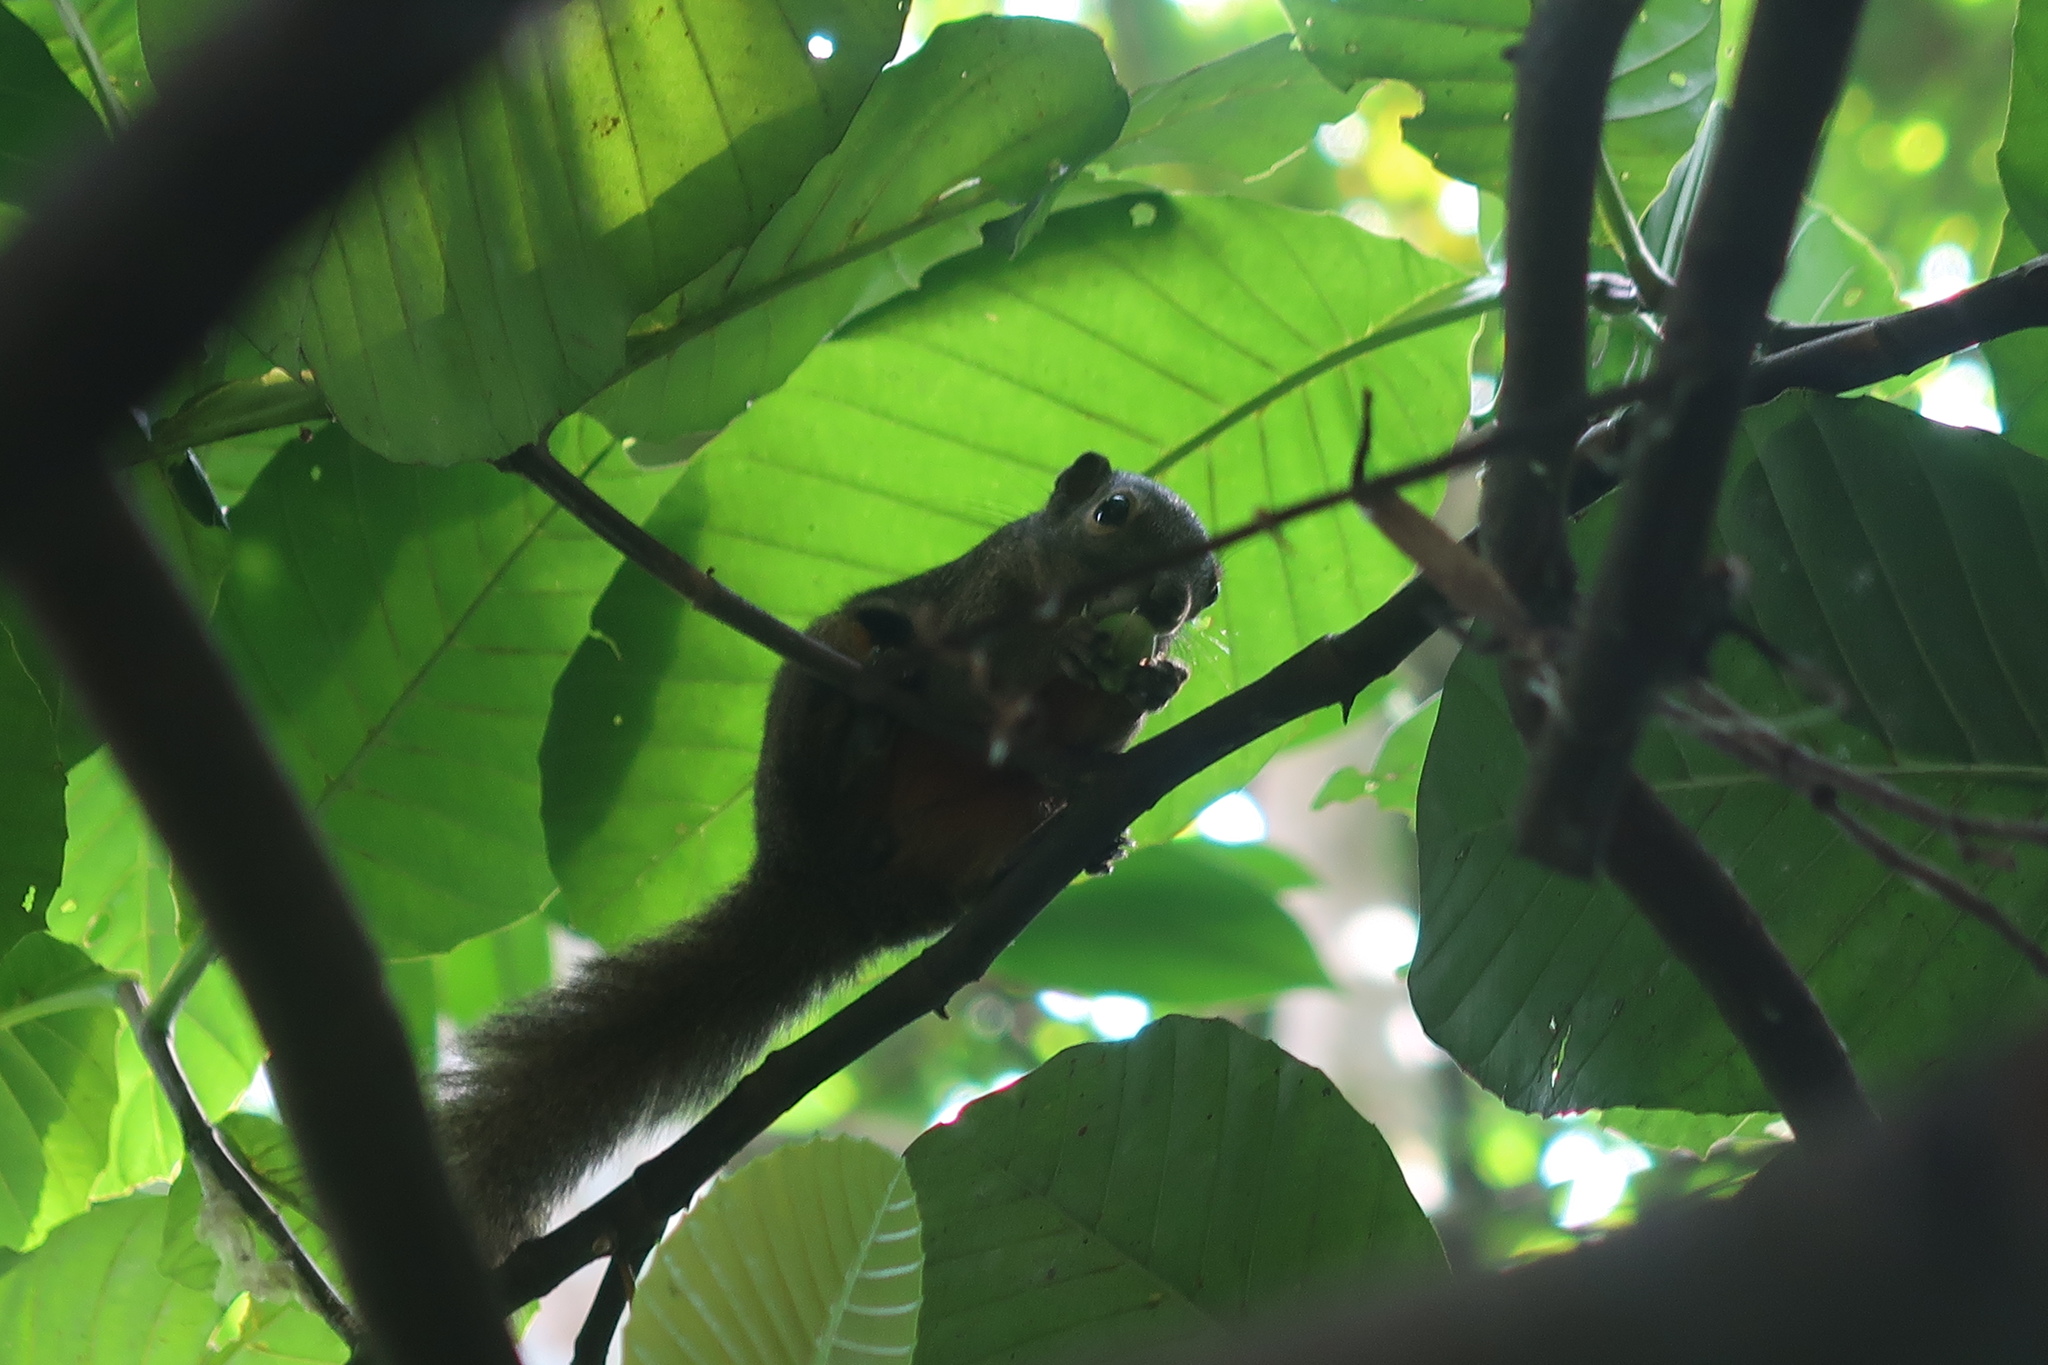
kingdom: Animalia
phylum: Chordata
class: Mammalia
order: Rodentia
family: Sciuridae
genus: Callosciurus
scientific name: Callosciurus notatus
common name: Plantain squirrel
